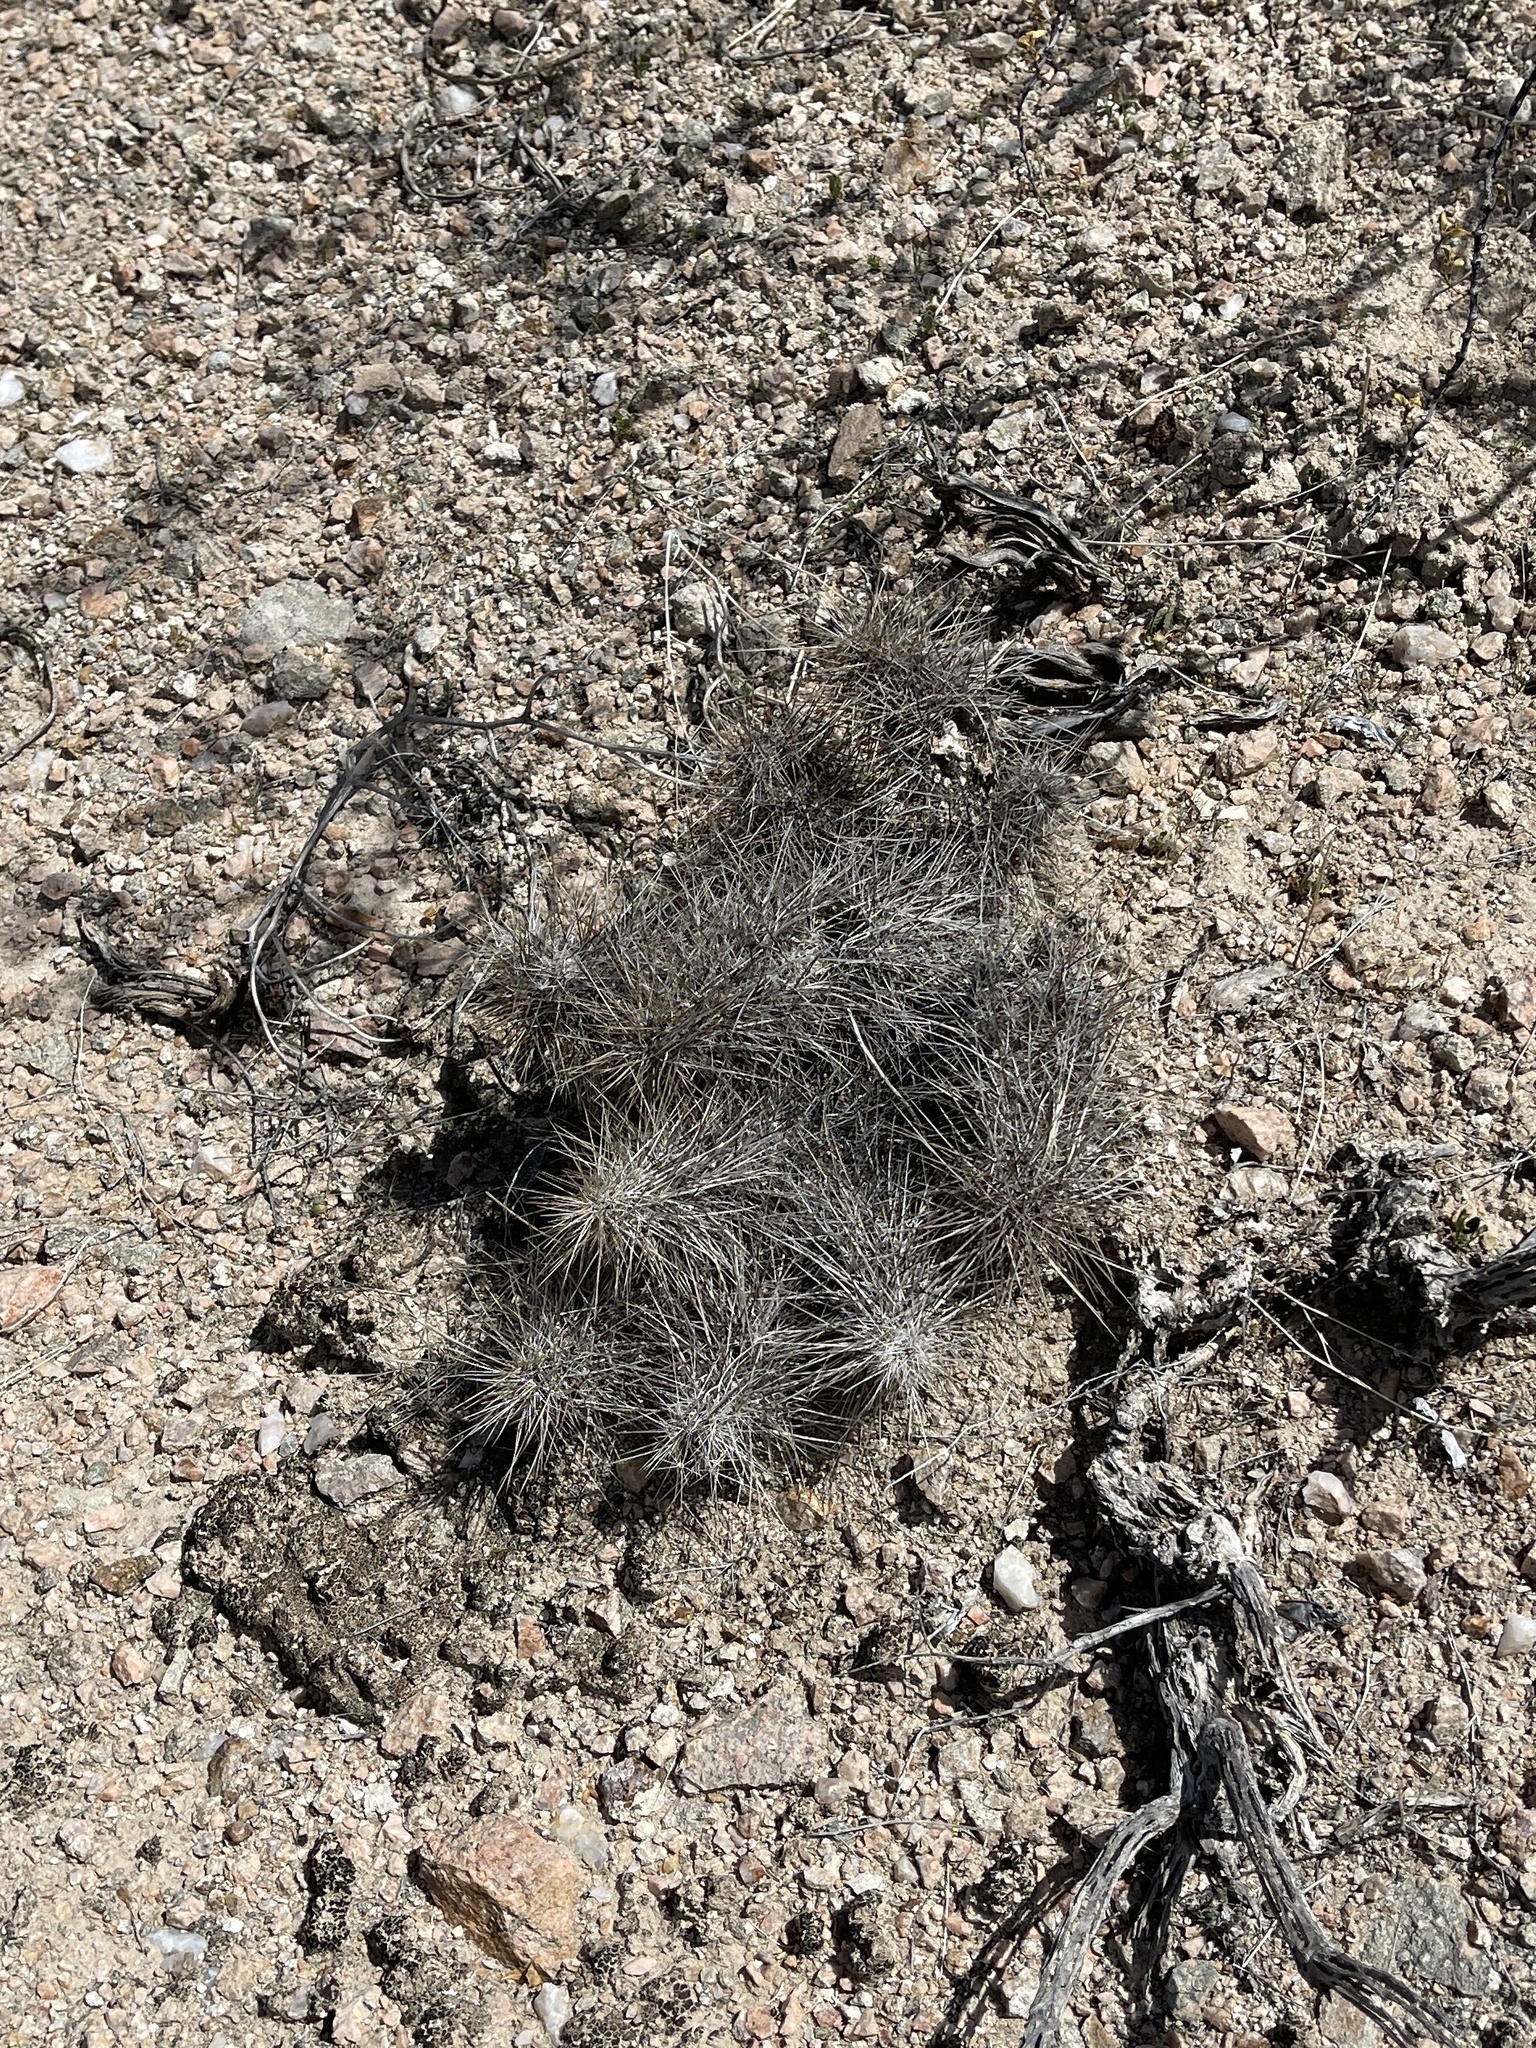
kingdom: Plantae
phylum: Tracheophyta
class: Magnoliopsida
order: Caryophyllales
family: Cactaceae
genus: Echinocereus
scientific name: Echinocereus engelmannii
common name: Engelmann's hedgehog cactus
